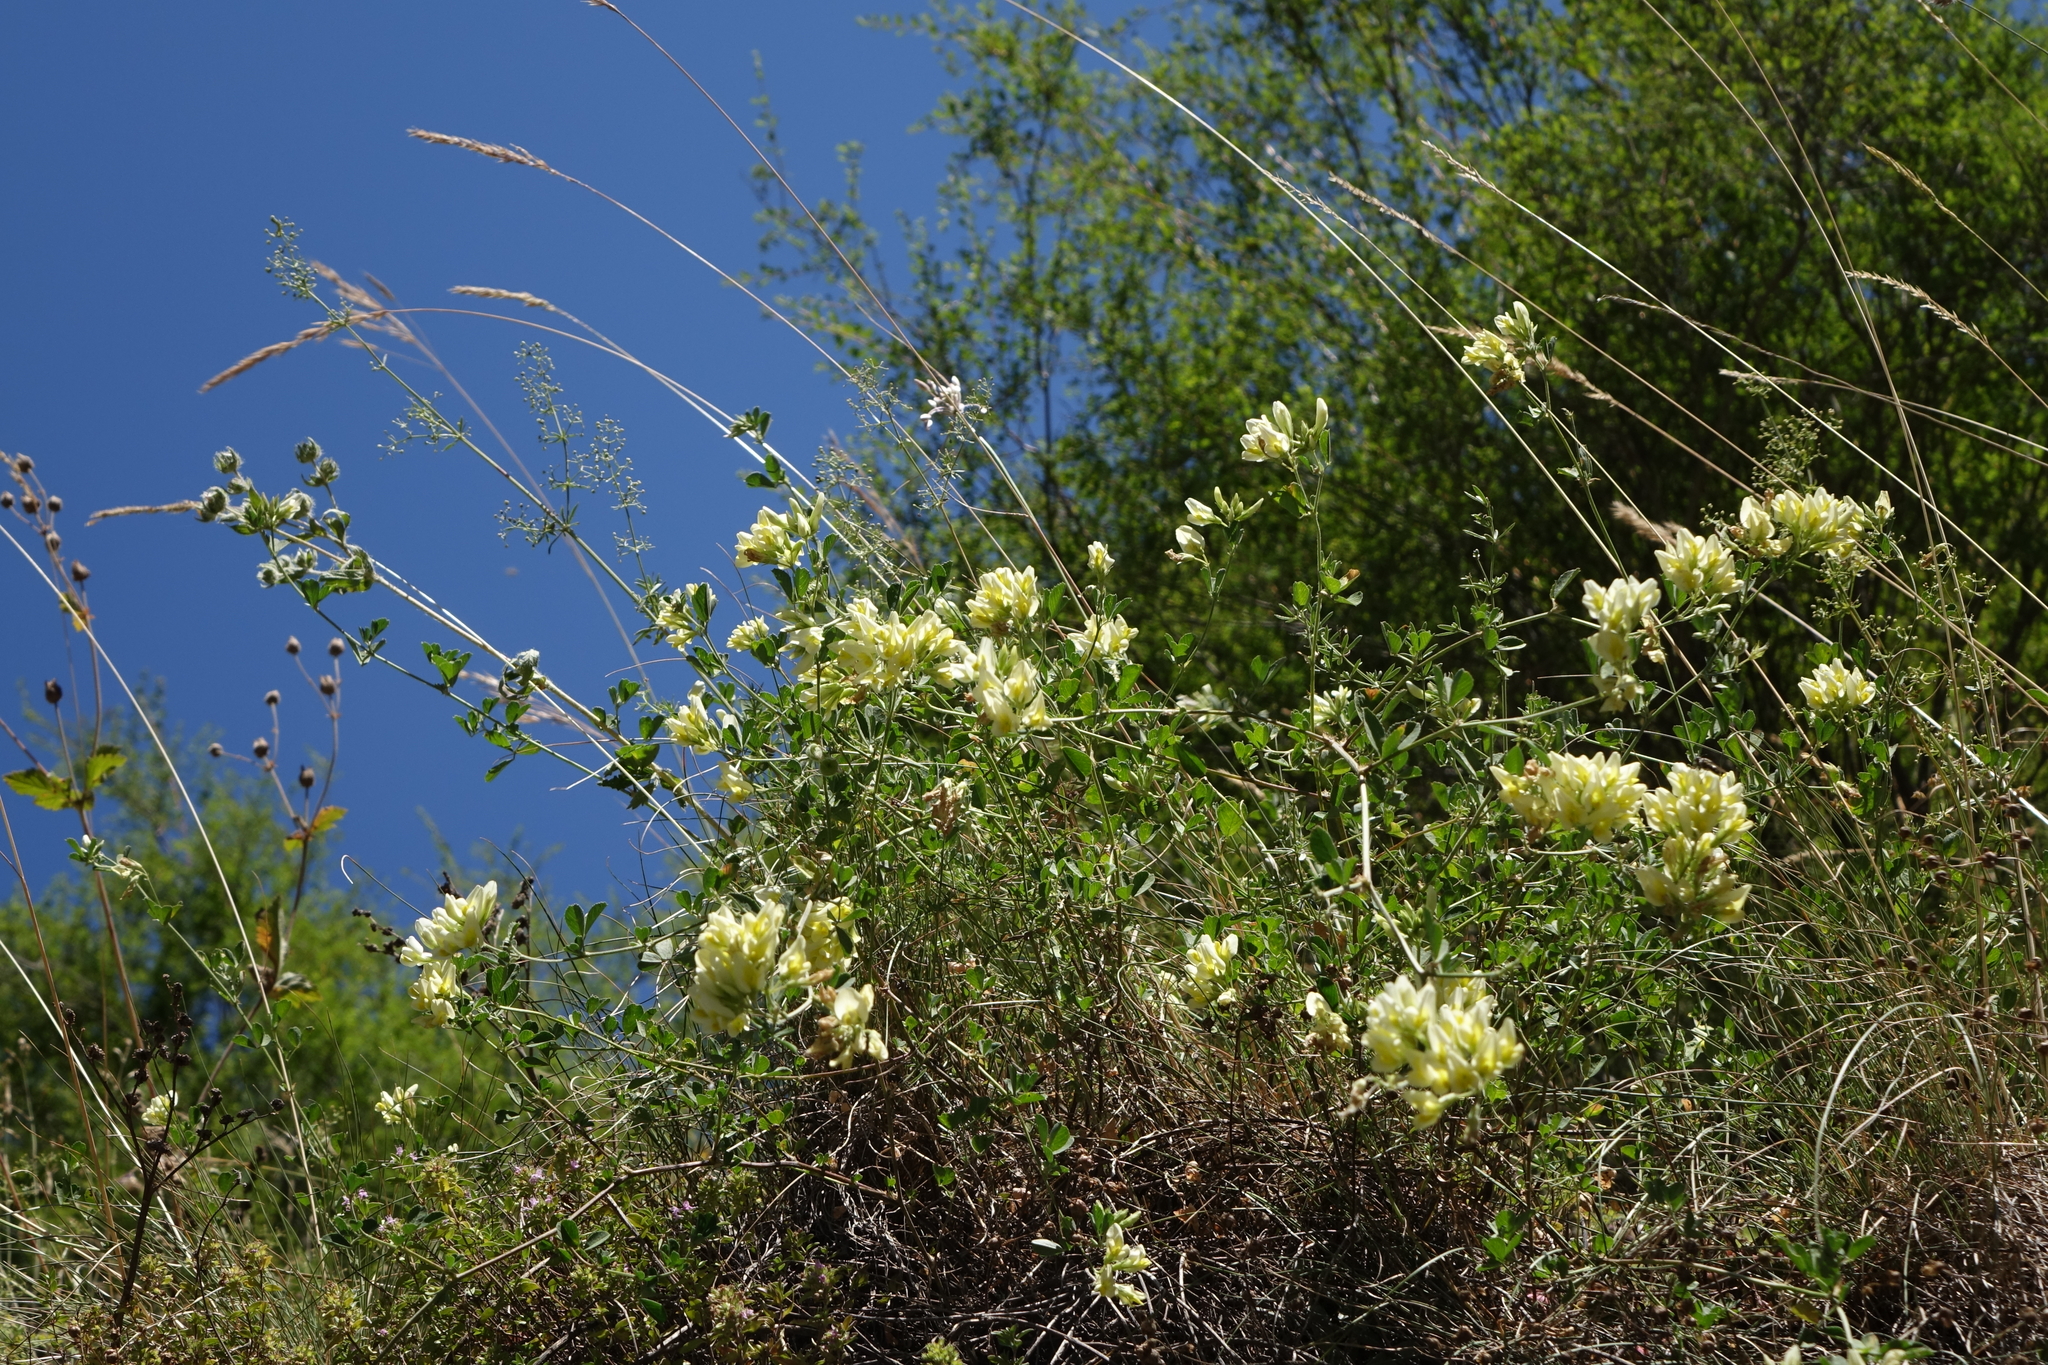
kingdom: Plantae
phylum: Tracheophyta
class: Magnoliopsida
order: Fabales
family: Fabaceae
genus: Medicago
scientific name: Medicago
